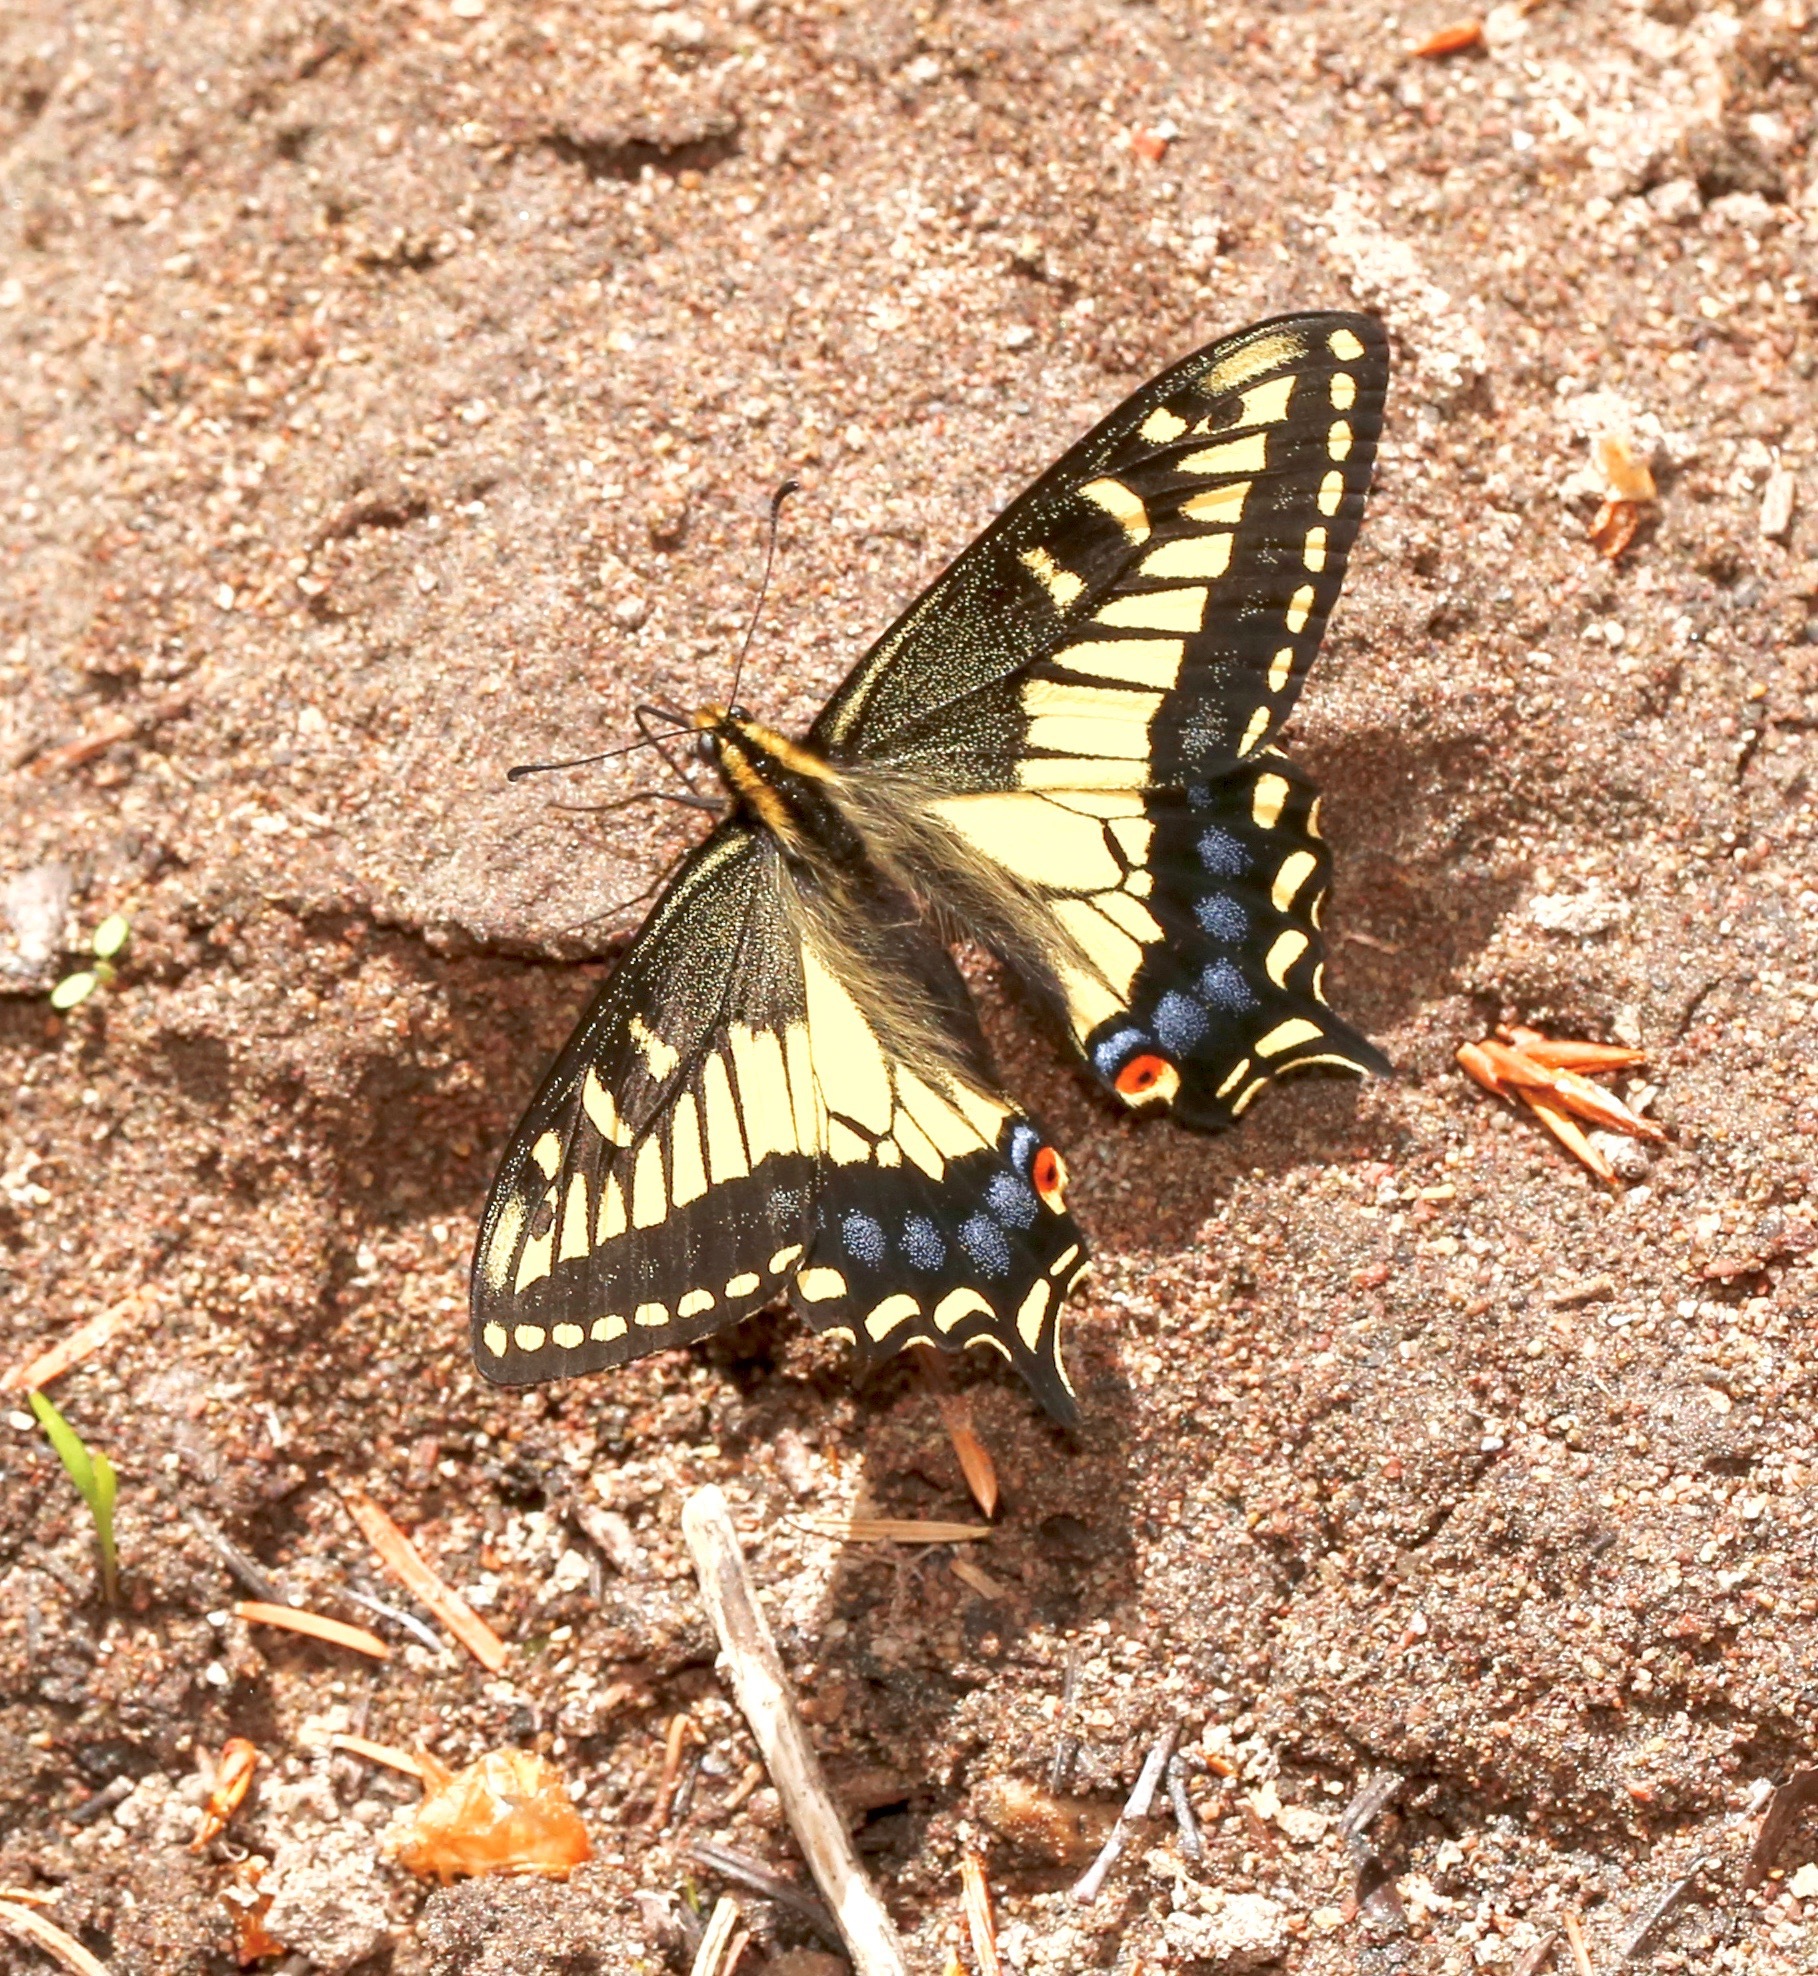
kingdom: Animalia
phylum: Arthropoda
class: Insecta
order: Lepidoptera
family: Papilionidae
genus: Papilio
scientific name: Papilio zelicaon
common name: Anise swallowtail
